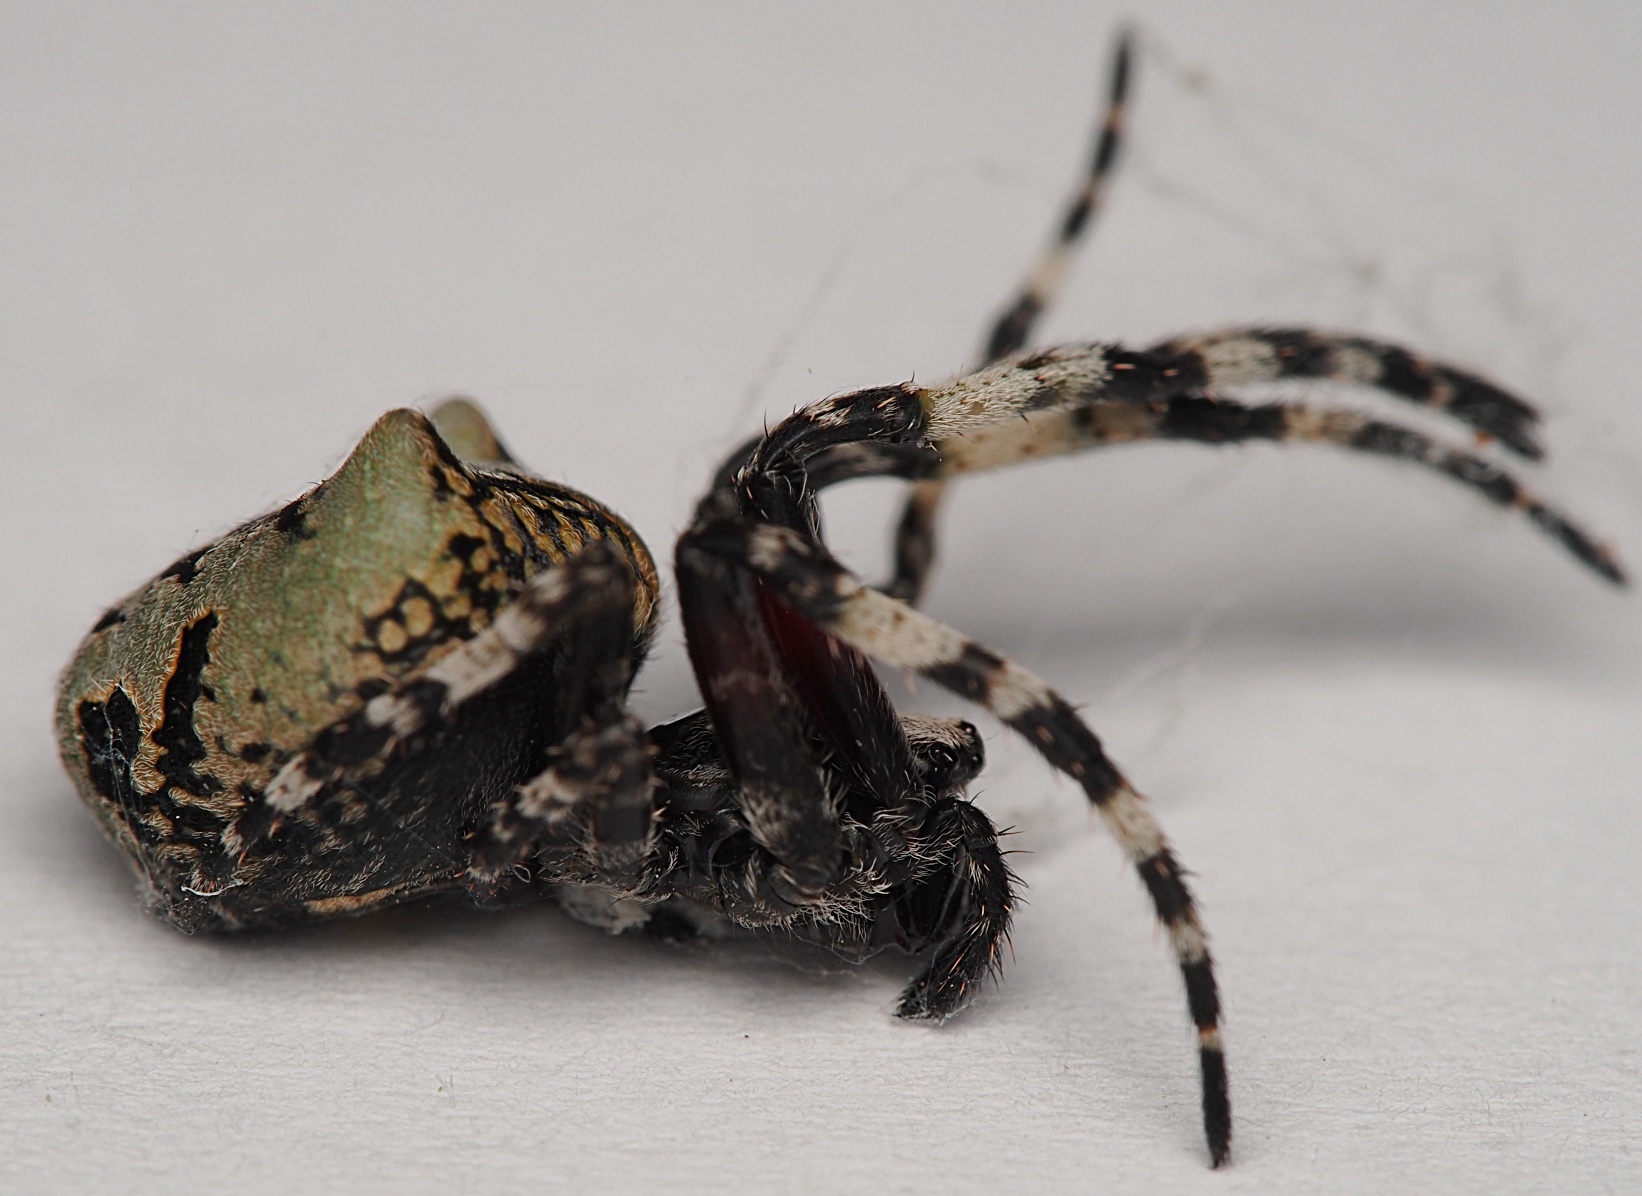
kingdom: Animalia
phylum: Arthropoda
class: Arachnida
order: Araneae
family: Araneidae
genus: Courtaraneus
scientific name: Courtaraneus orientalis
